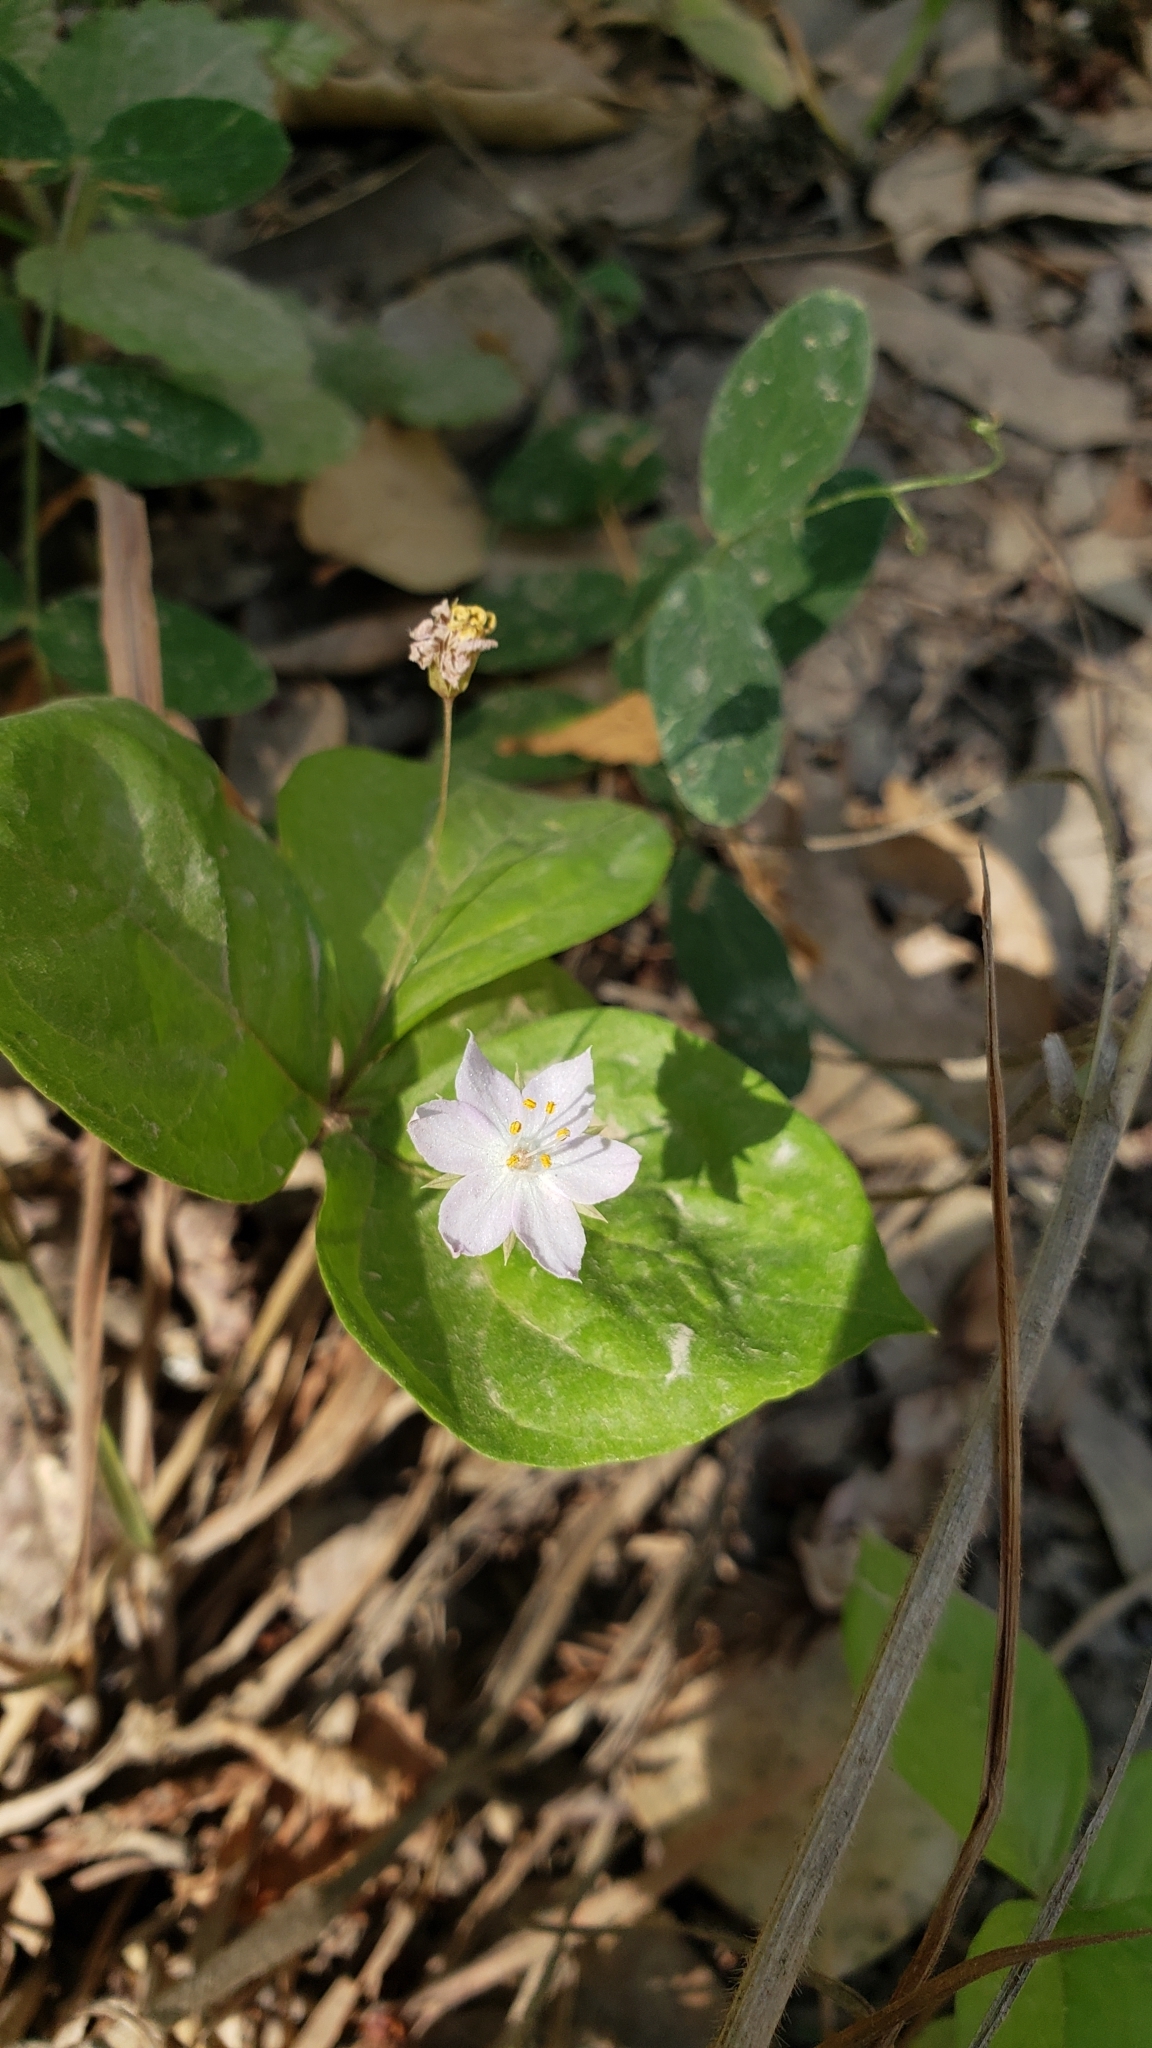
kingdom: Plantae
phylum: Tracheophyta
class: Magnoliopsida
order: Ericales
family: Primulaceae
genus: Lysimachia
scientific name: Lysimachia latifolia
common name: Pacific starflower
